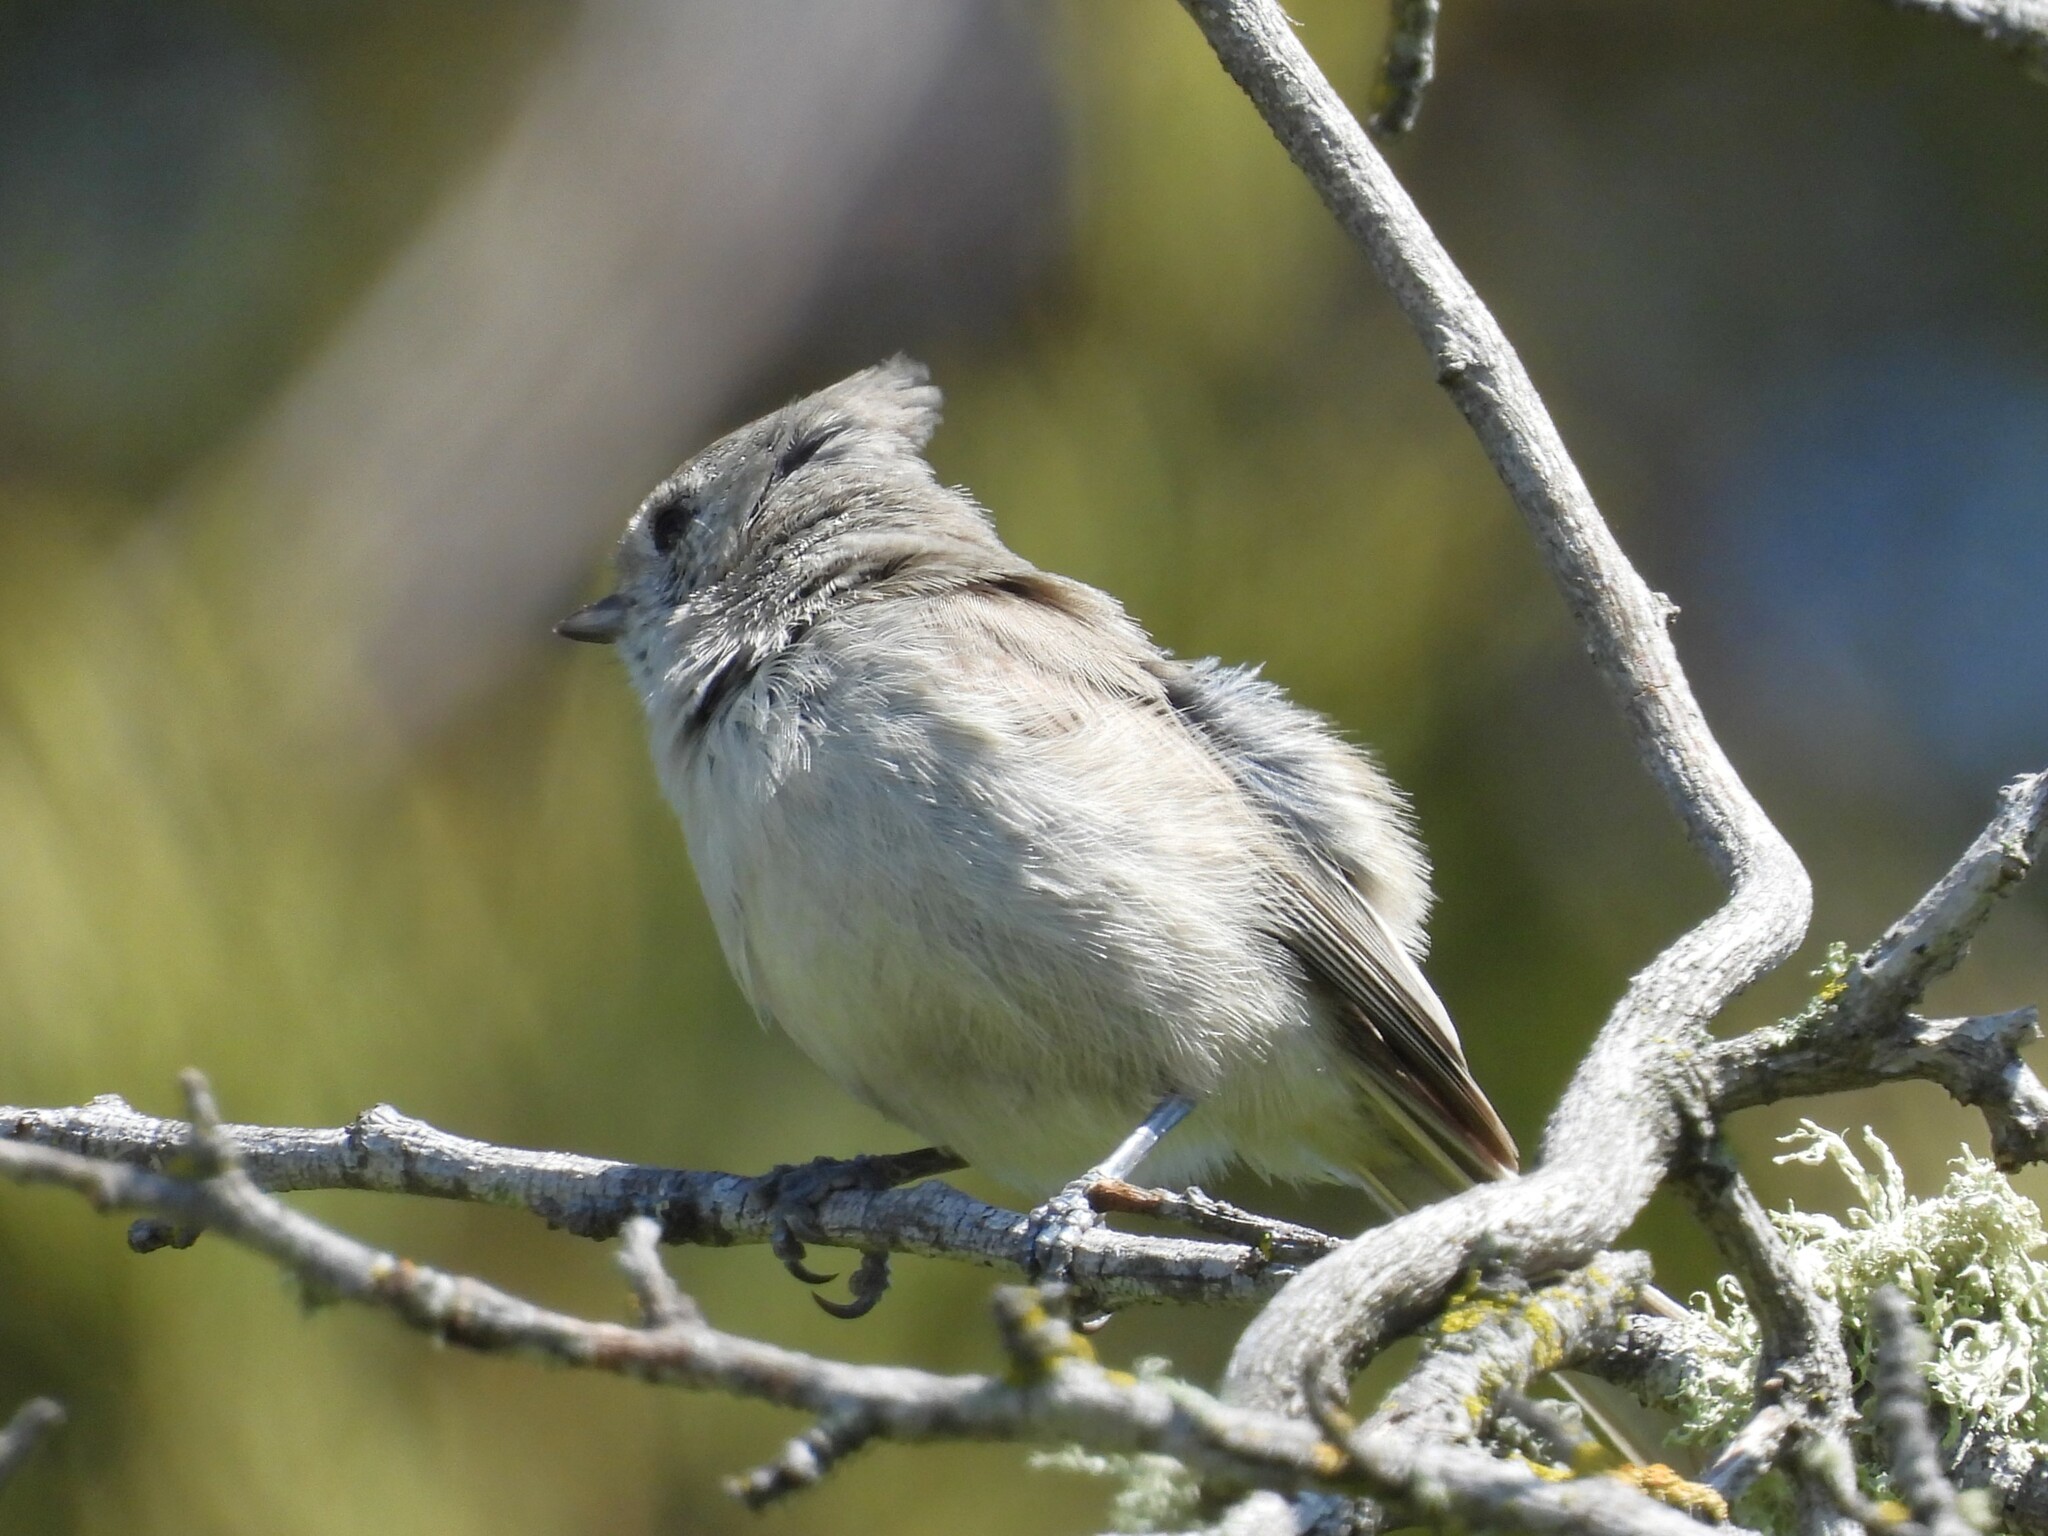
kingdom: Animalia
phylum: Chordata
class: Aves
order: Passeriformes
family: Paridae
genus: Baeolophus
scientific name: Baeolophus inornatus
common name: Oak titmouse
